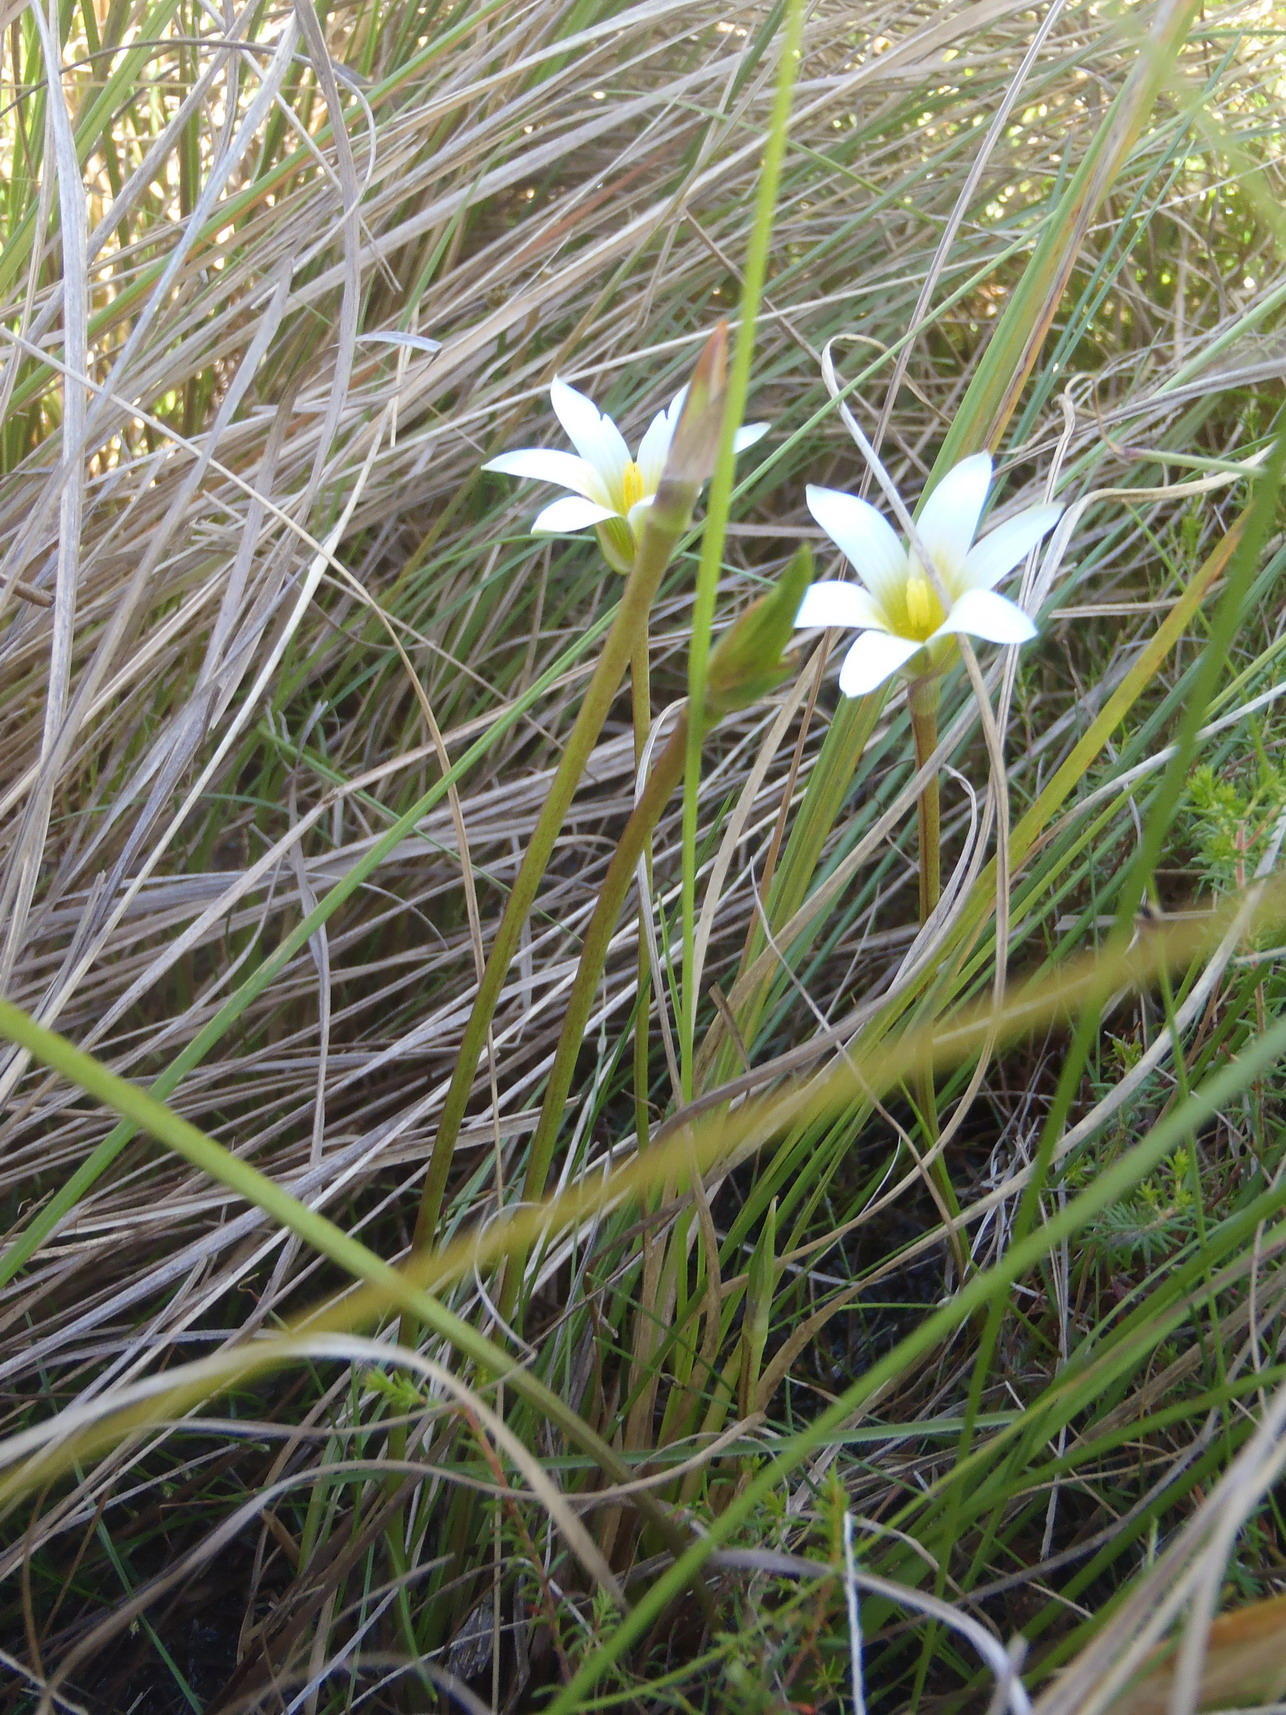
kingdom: Plantae
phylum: Tracheophyta
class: Liliopsida
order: Asparagales
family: Iridaceae
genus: Romulea
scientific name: Romulea flava
